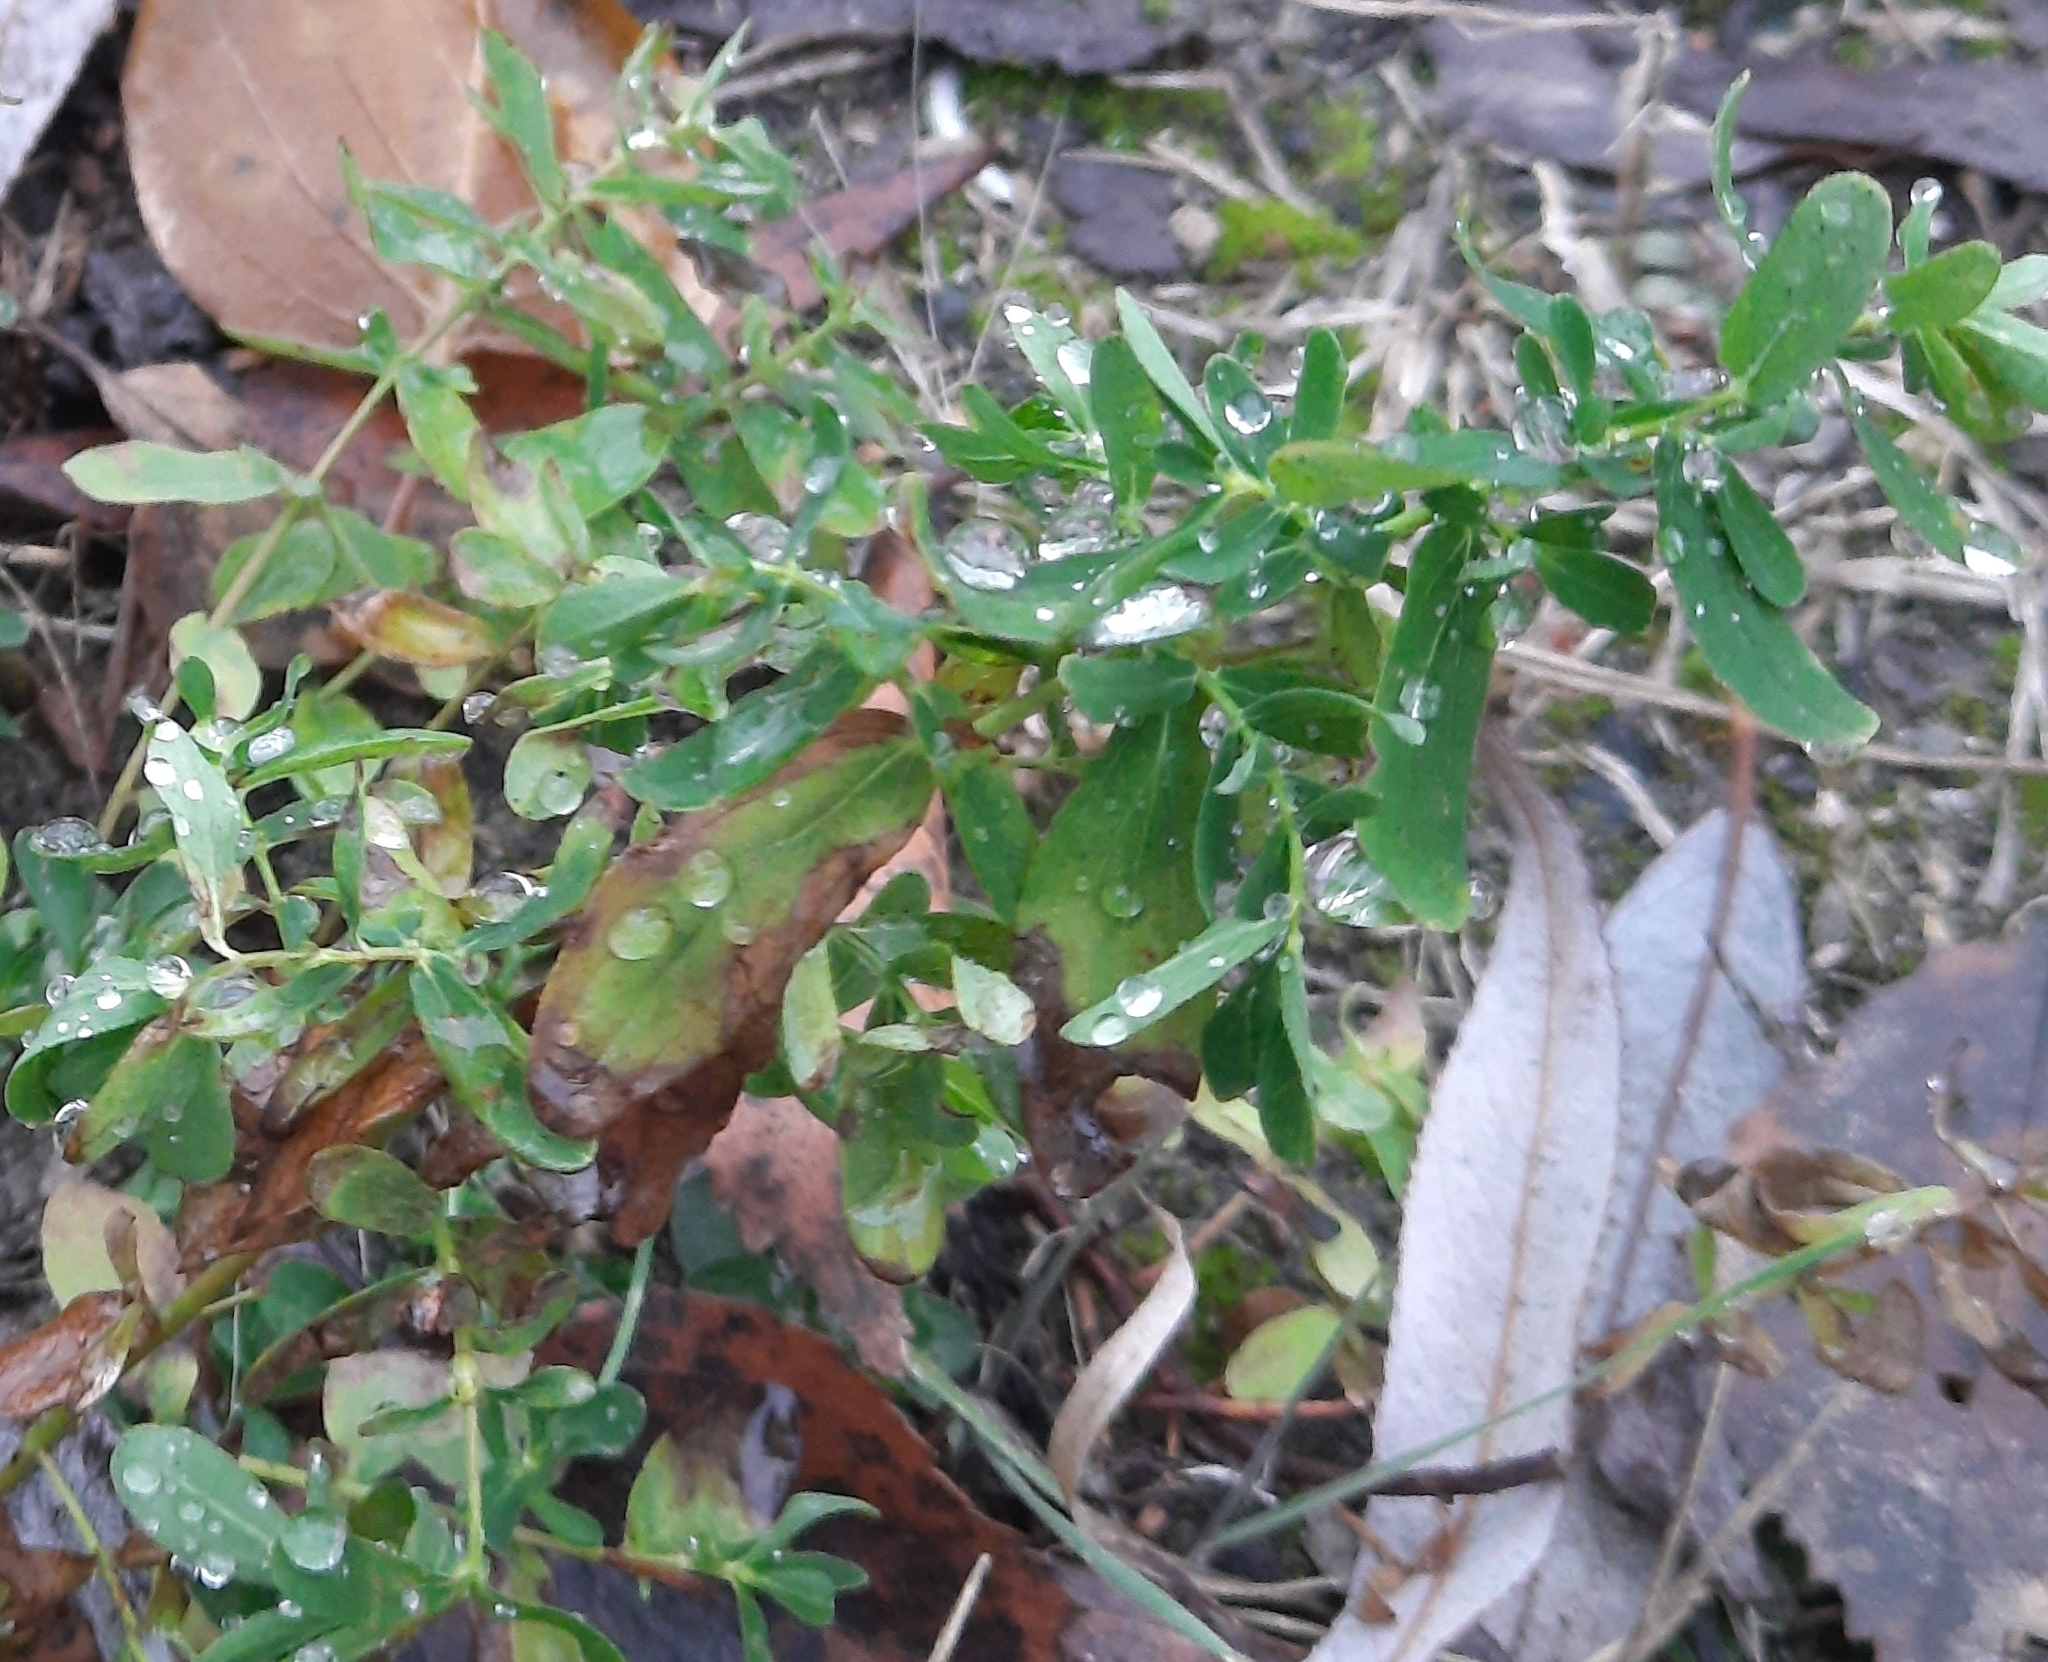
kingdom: Plantae
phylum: Tracheophyta
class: Magnoliopsida
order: Malpighiales
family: Hypericaceae
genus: Hypericum
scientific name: Hypericum perforatum
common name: Common st. johnswort
